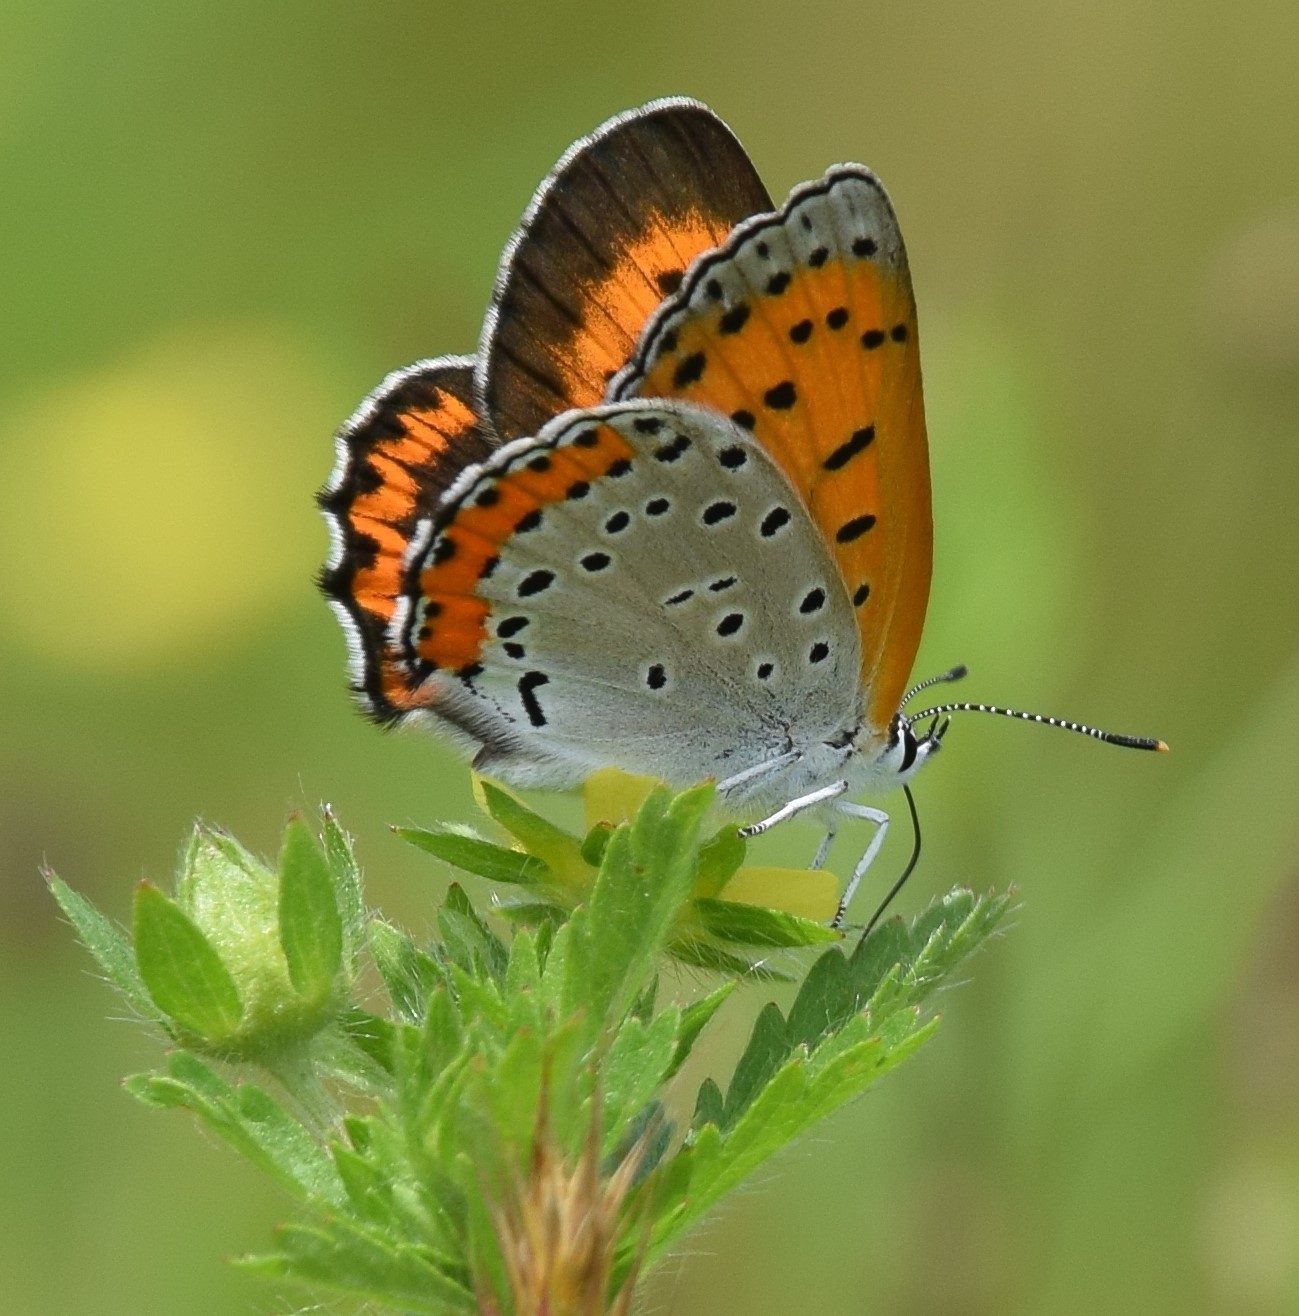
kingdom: Animalia
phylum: Arthropoda
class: Insecta
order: Lepidoptera
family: Lycaenidae
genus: Tharsalea
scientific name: Tharsalea hyllus
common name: Bronze copper
